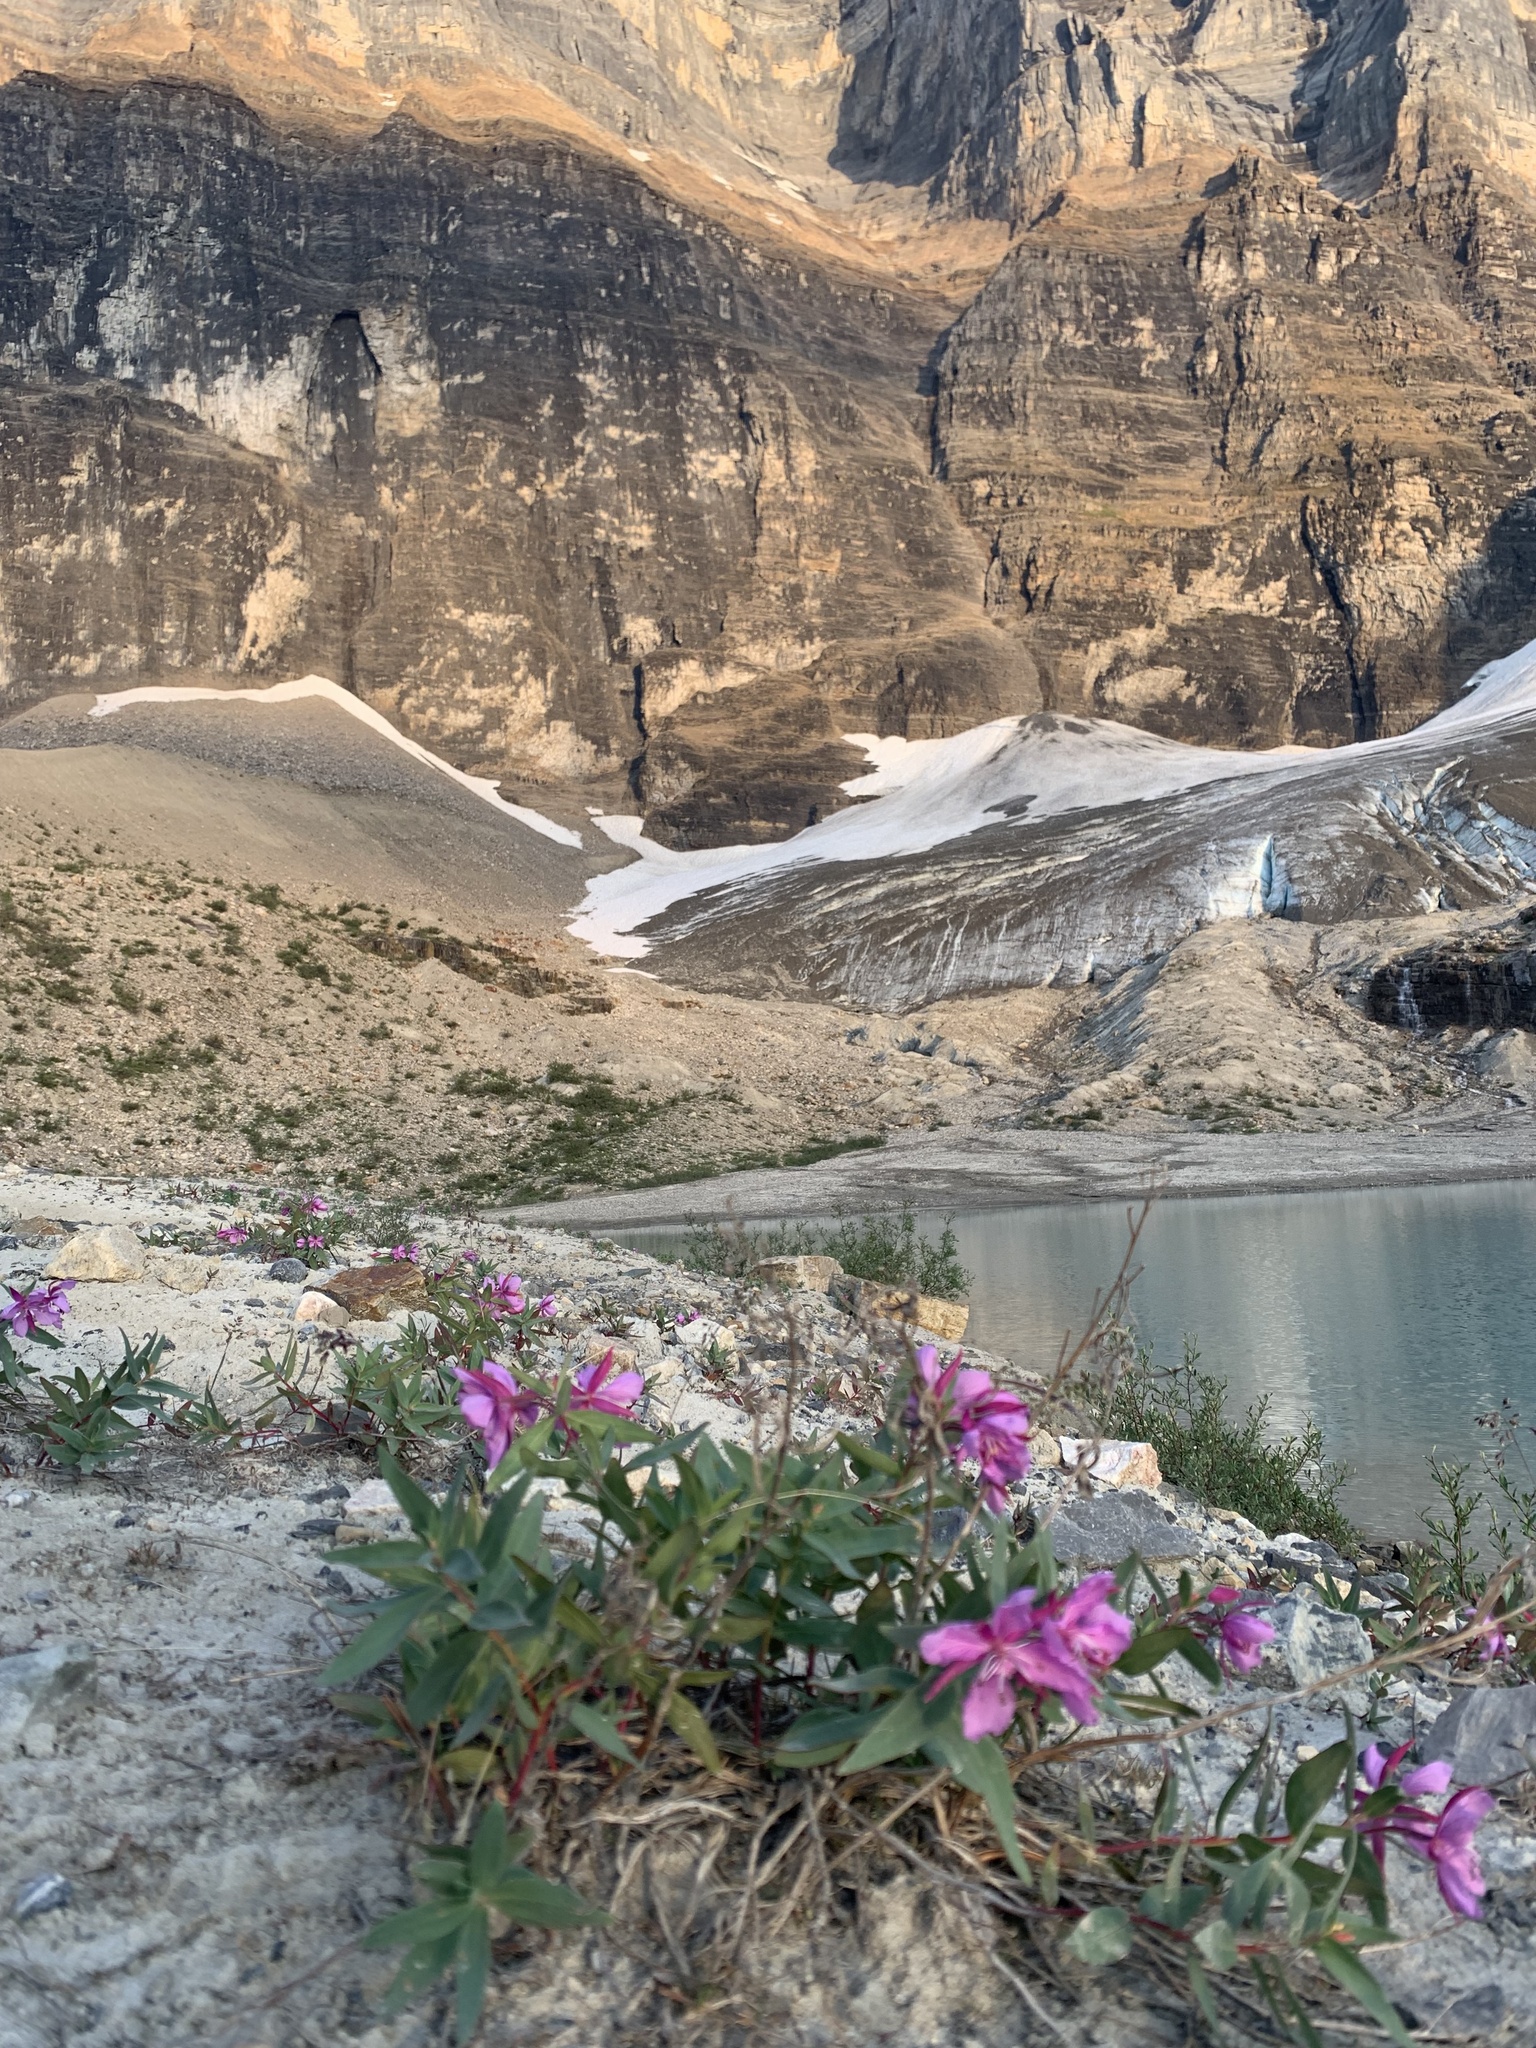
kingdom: Plantae
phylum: Tracheophyta
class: Magnoliopsida
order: Myrtales
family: Onagraceae
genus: Chamaenerion
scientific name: Chamaenerion latifolium
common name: Dwarf fireweed
